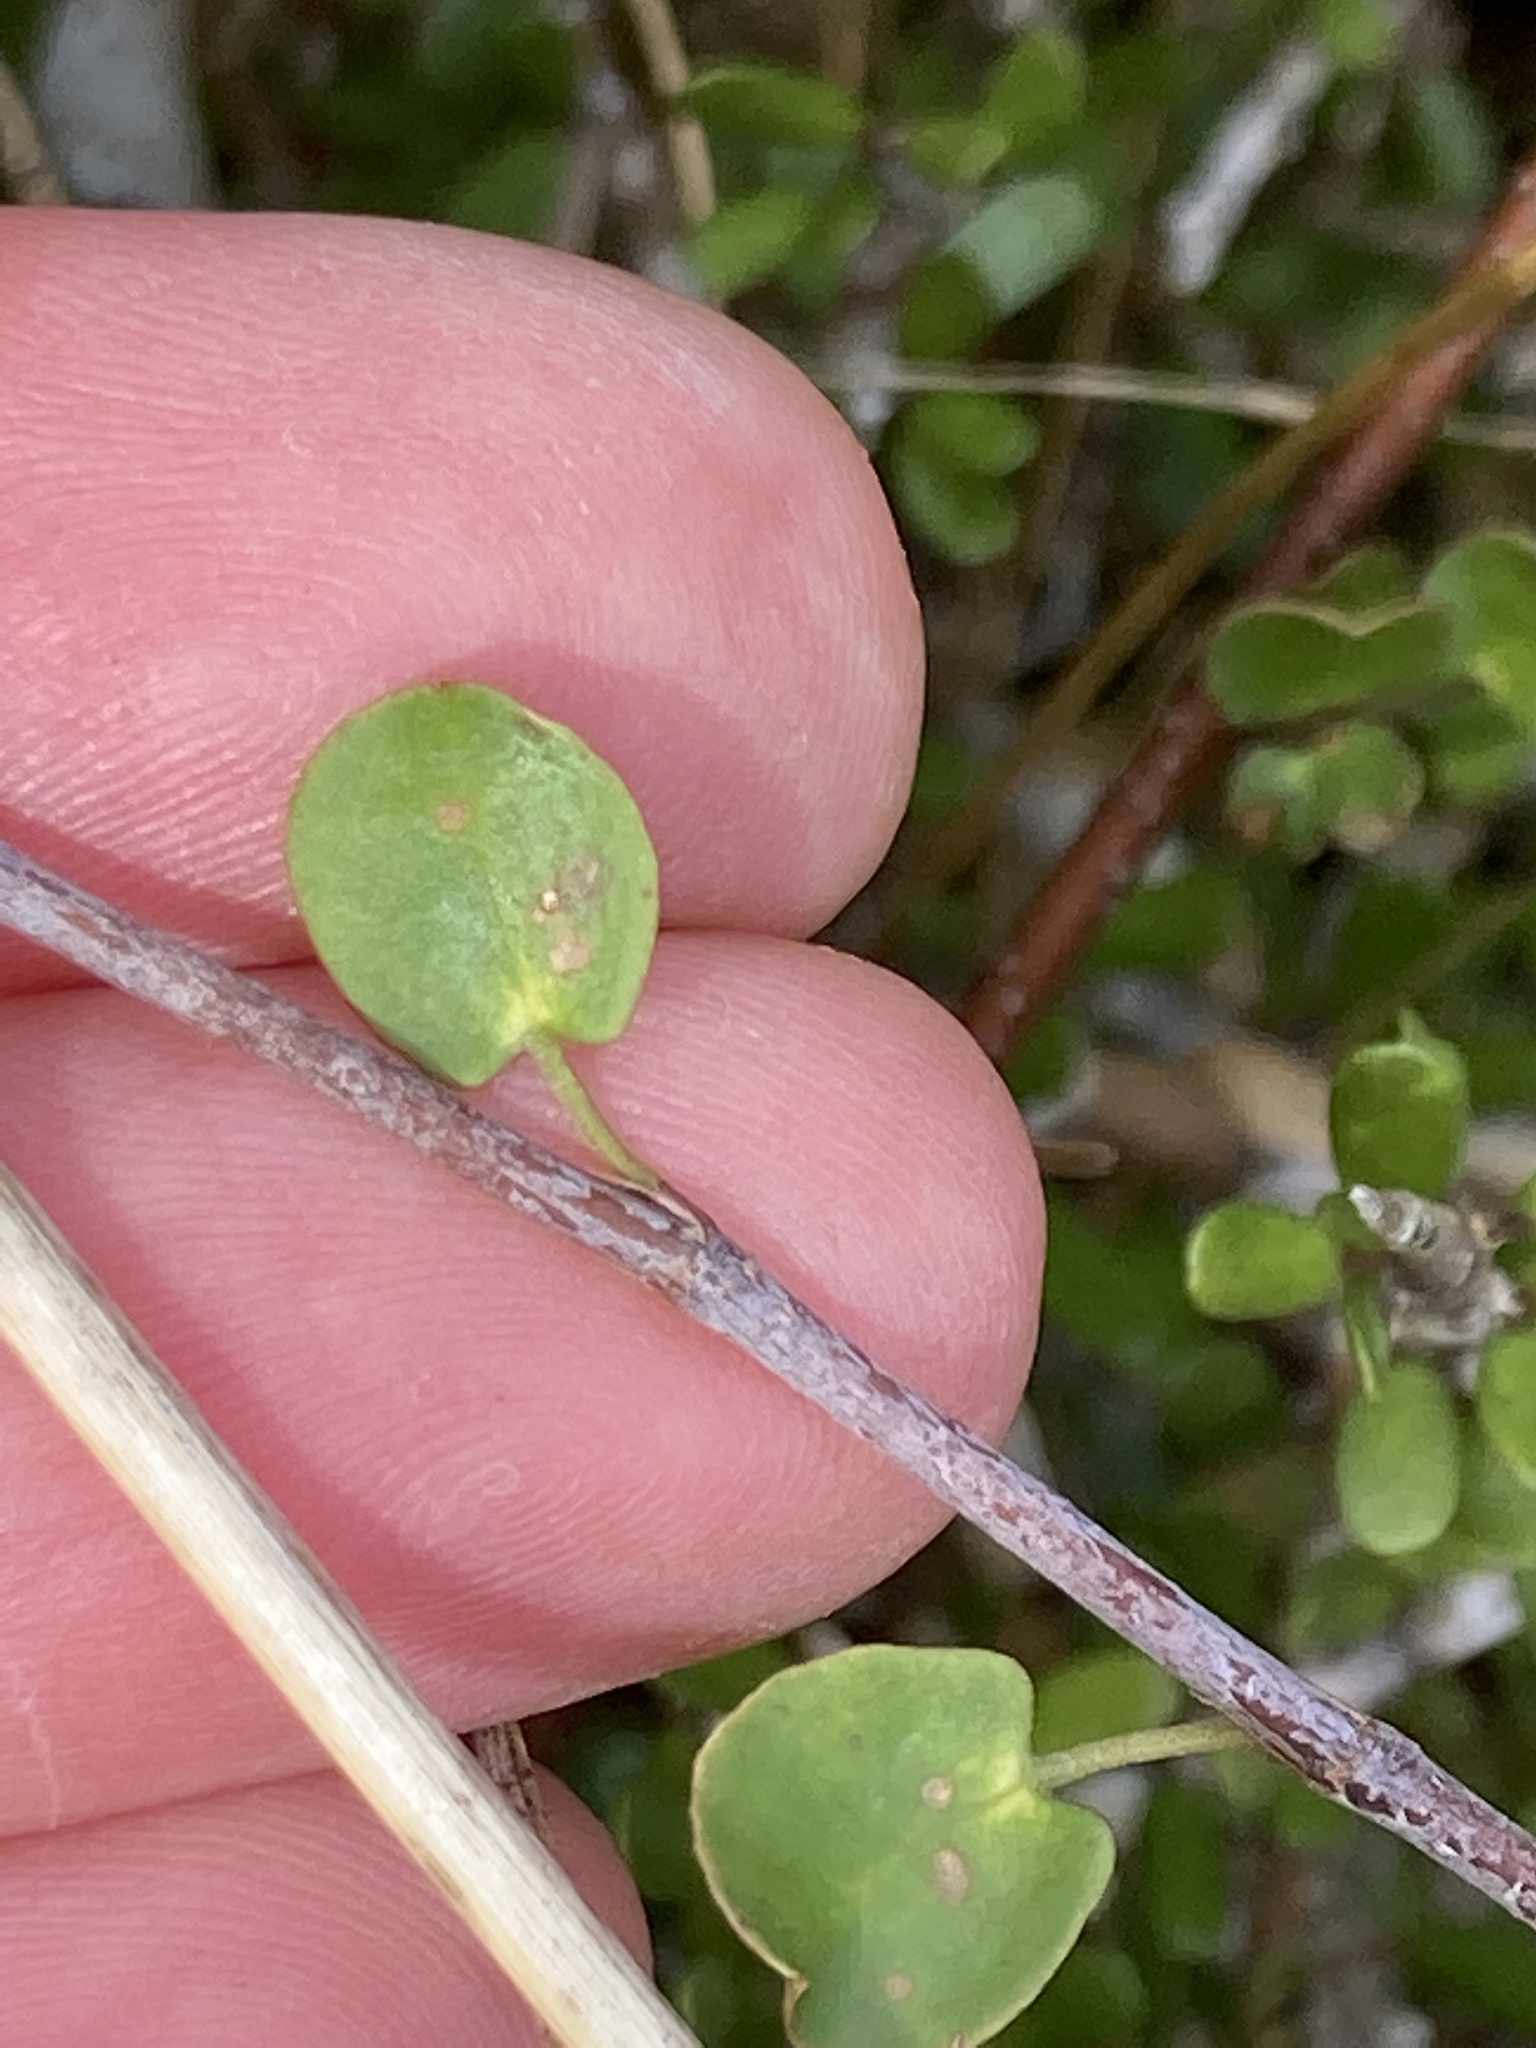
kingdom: Plantae
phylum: Tracheophyta
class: Magnoliopsida
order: Caryophyllales
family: Polygonaceae
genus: Muehlenbeckia
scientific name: Muehlenbeckia complexa
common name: Wireplant
